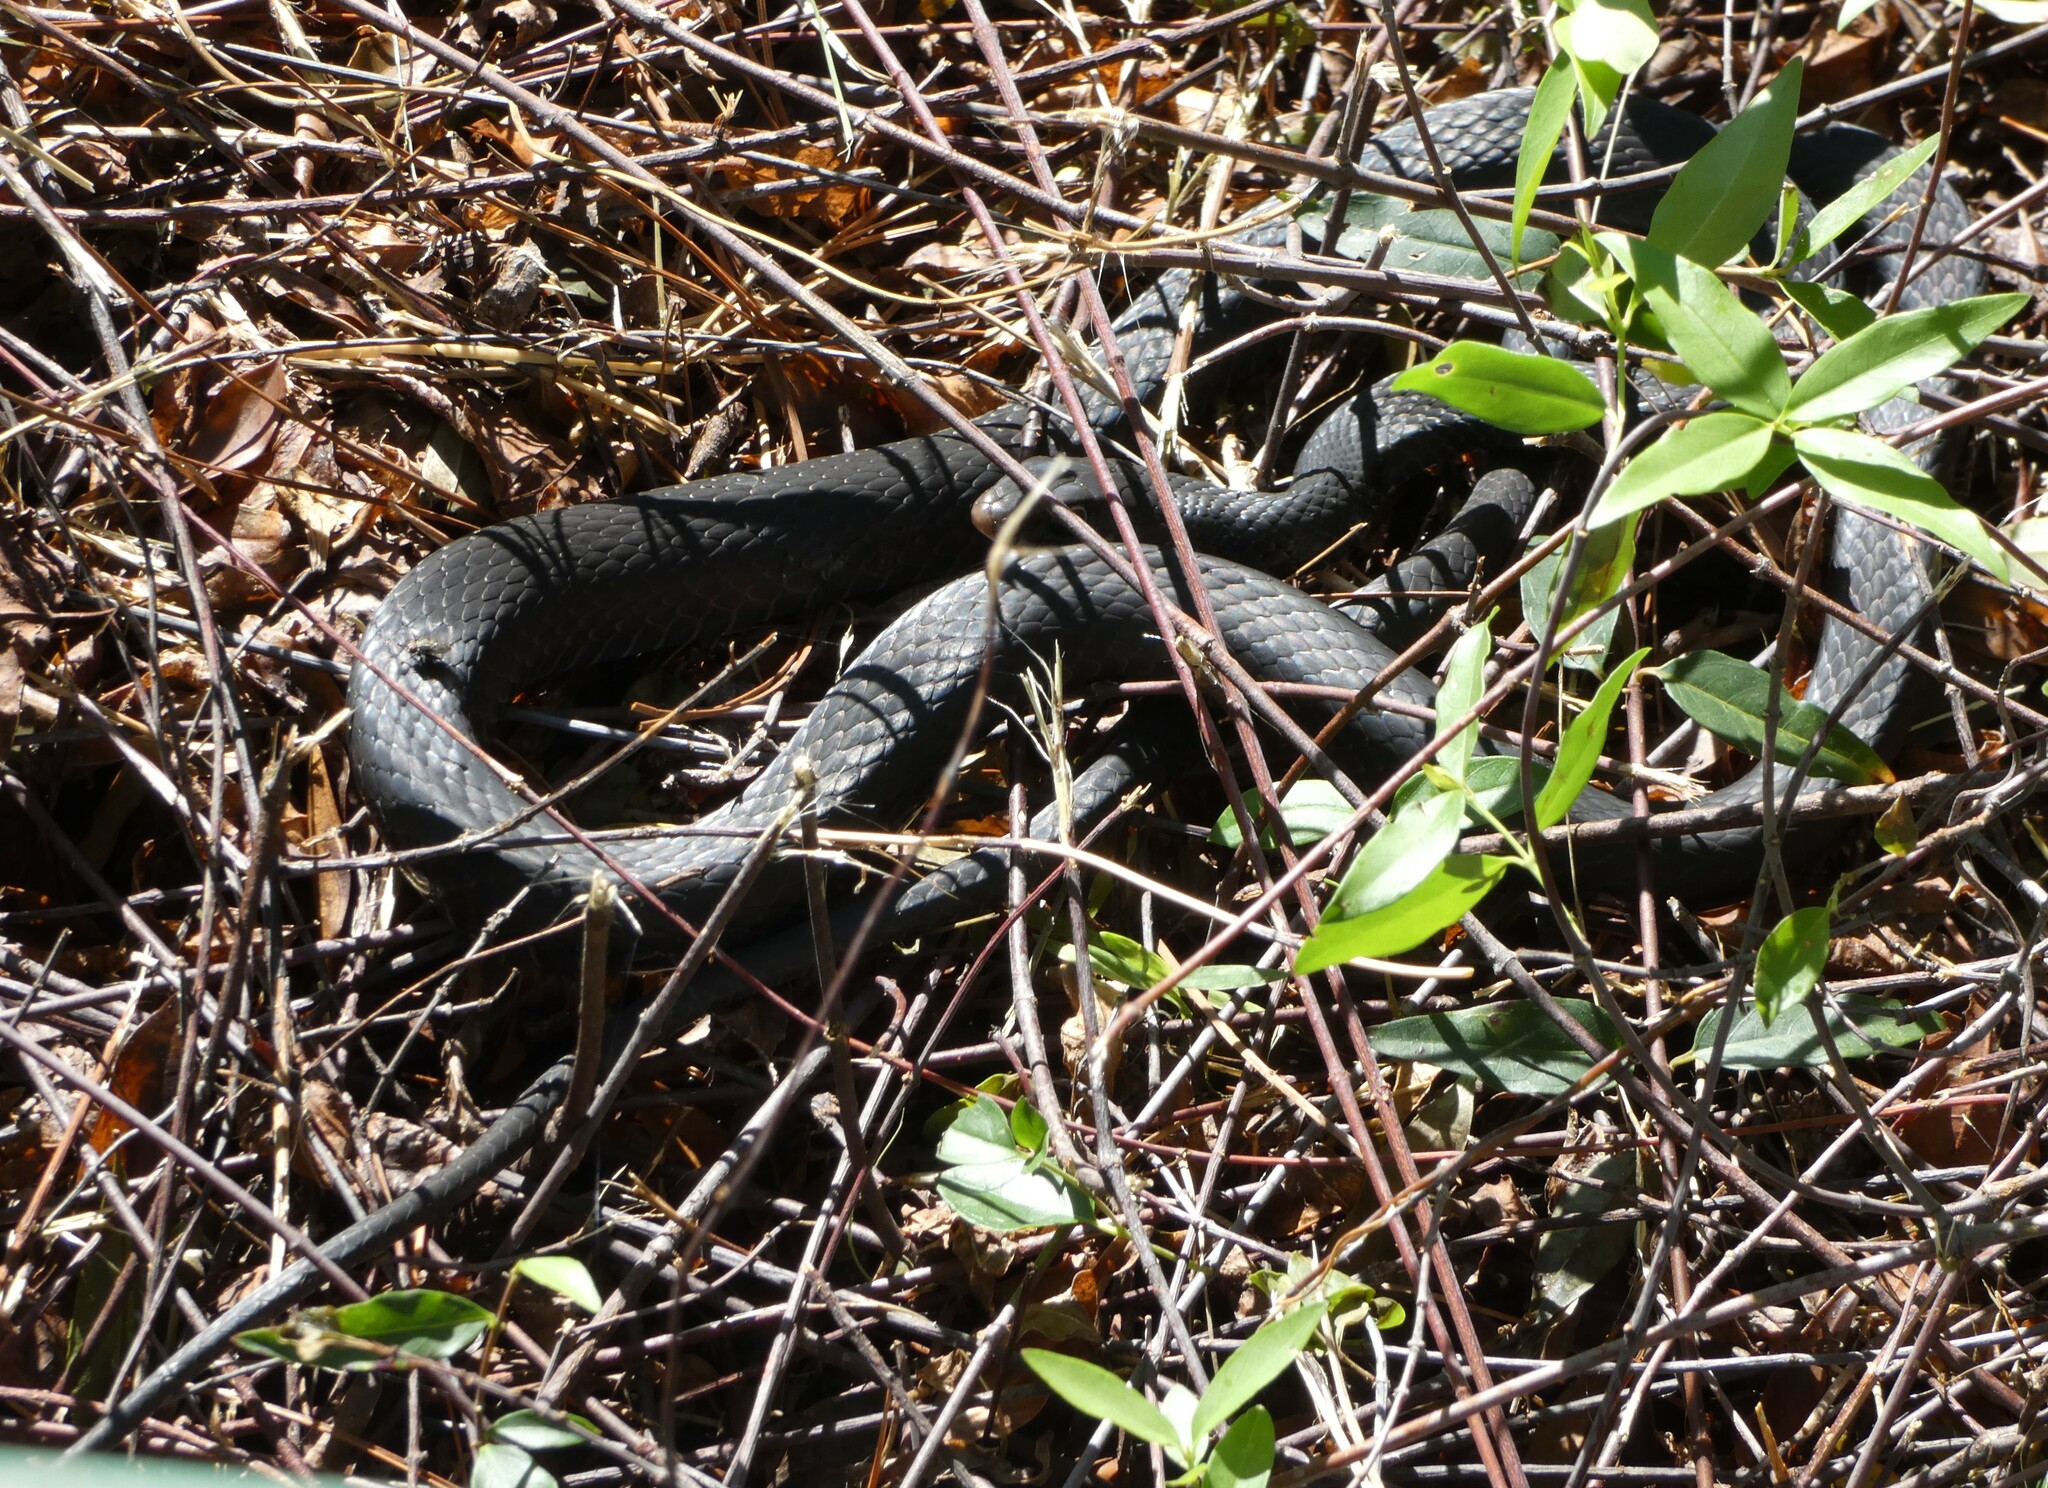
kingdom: Animalia
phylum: Chordata
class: Squamata
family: Colubridae
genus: Coluber
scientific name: Coluber constrictor
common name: Eastern racer
